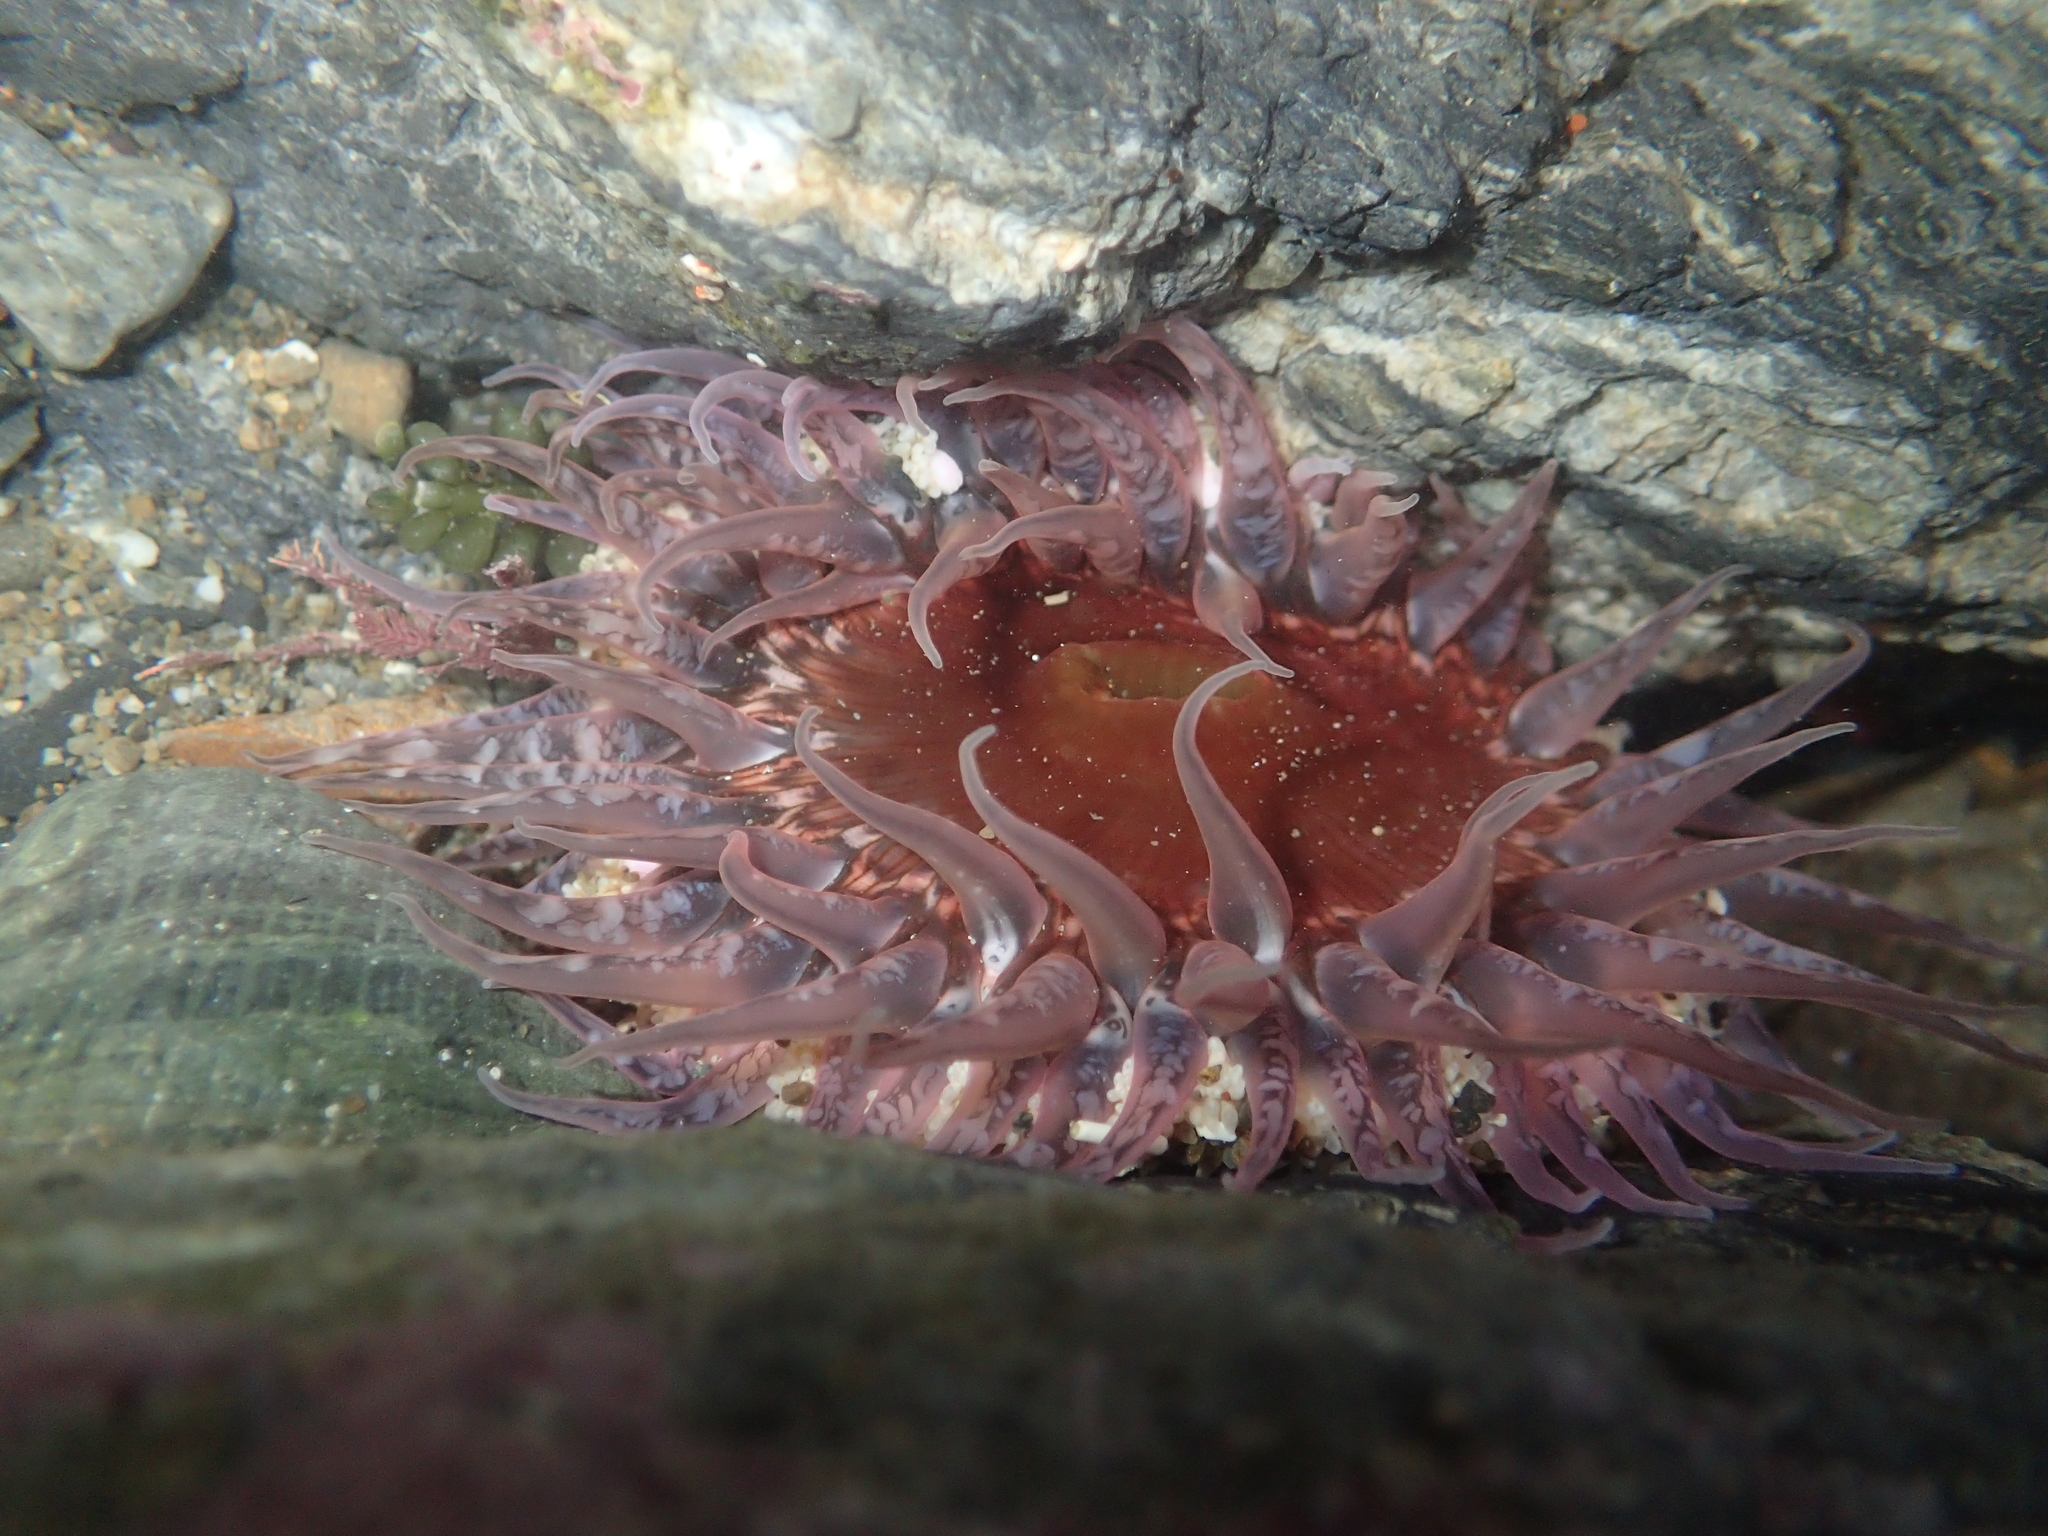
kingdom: Animalia
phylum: Cnidaria
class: Anthozoa
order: Actiniaria
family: Actiniidae
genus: Oulactis
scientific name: Oulactis muscosa
